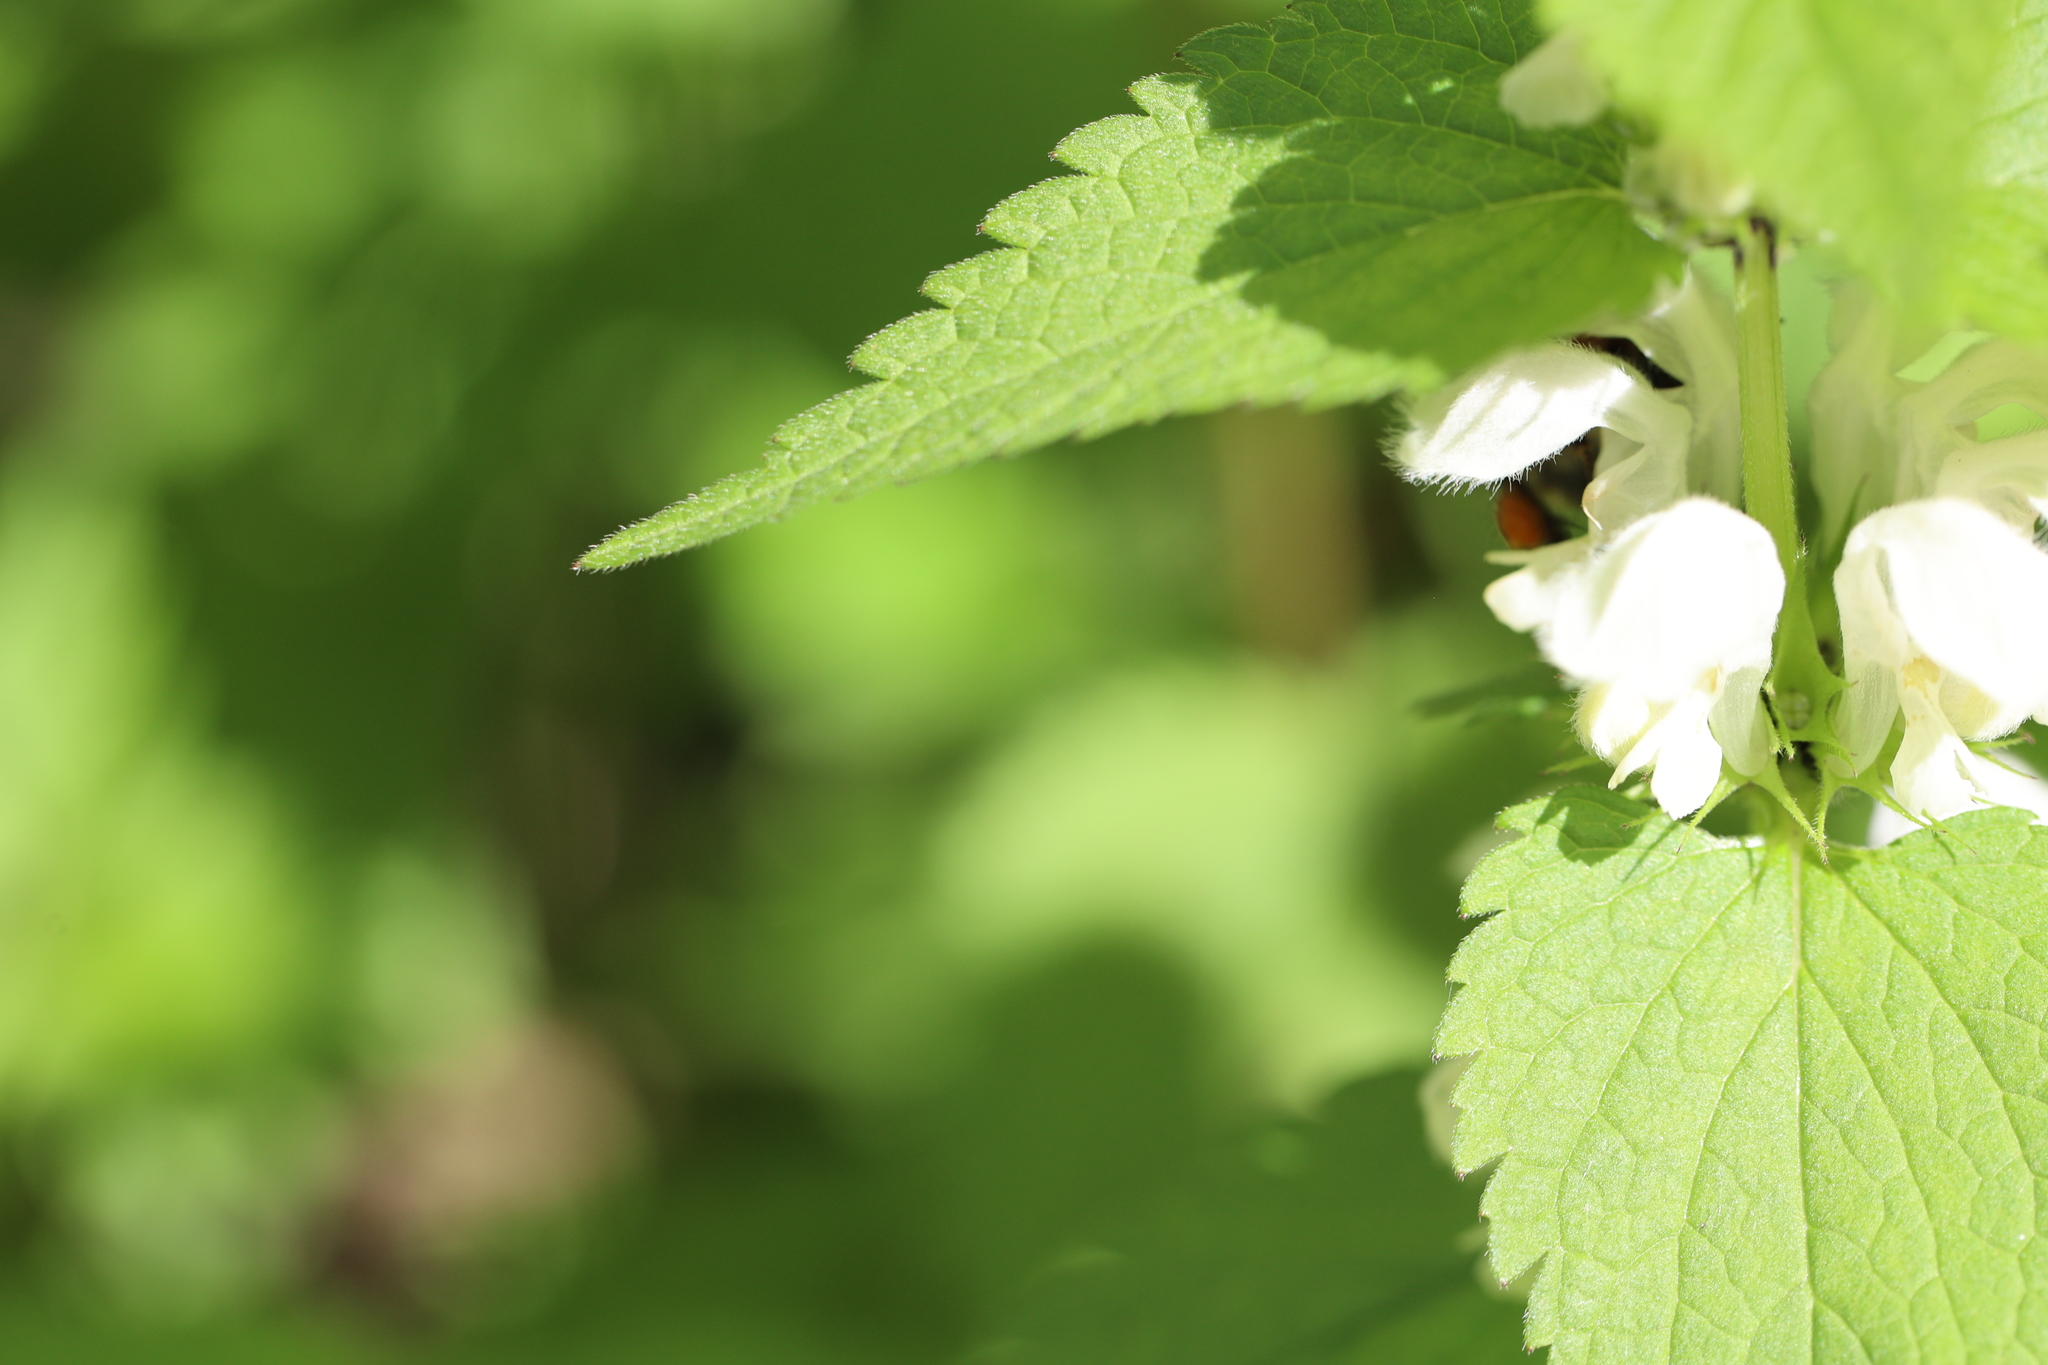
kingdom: Plantae
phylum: Tracheophyta
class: Magnoliopsida
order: Lamiales
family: Lamiaceae
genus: Lamium
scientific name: Lamium album
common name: White dead-nettle
